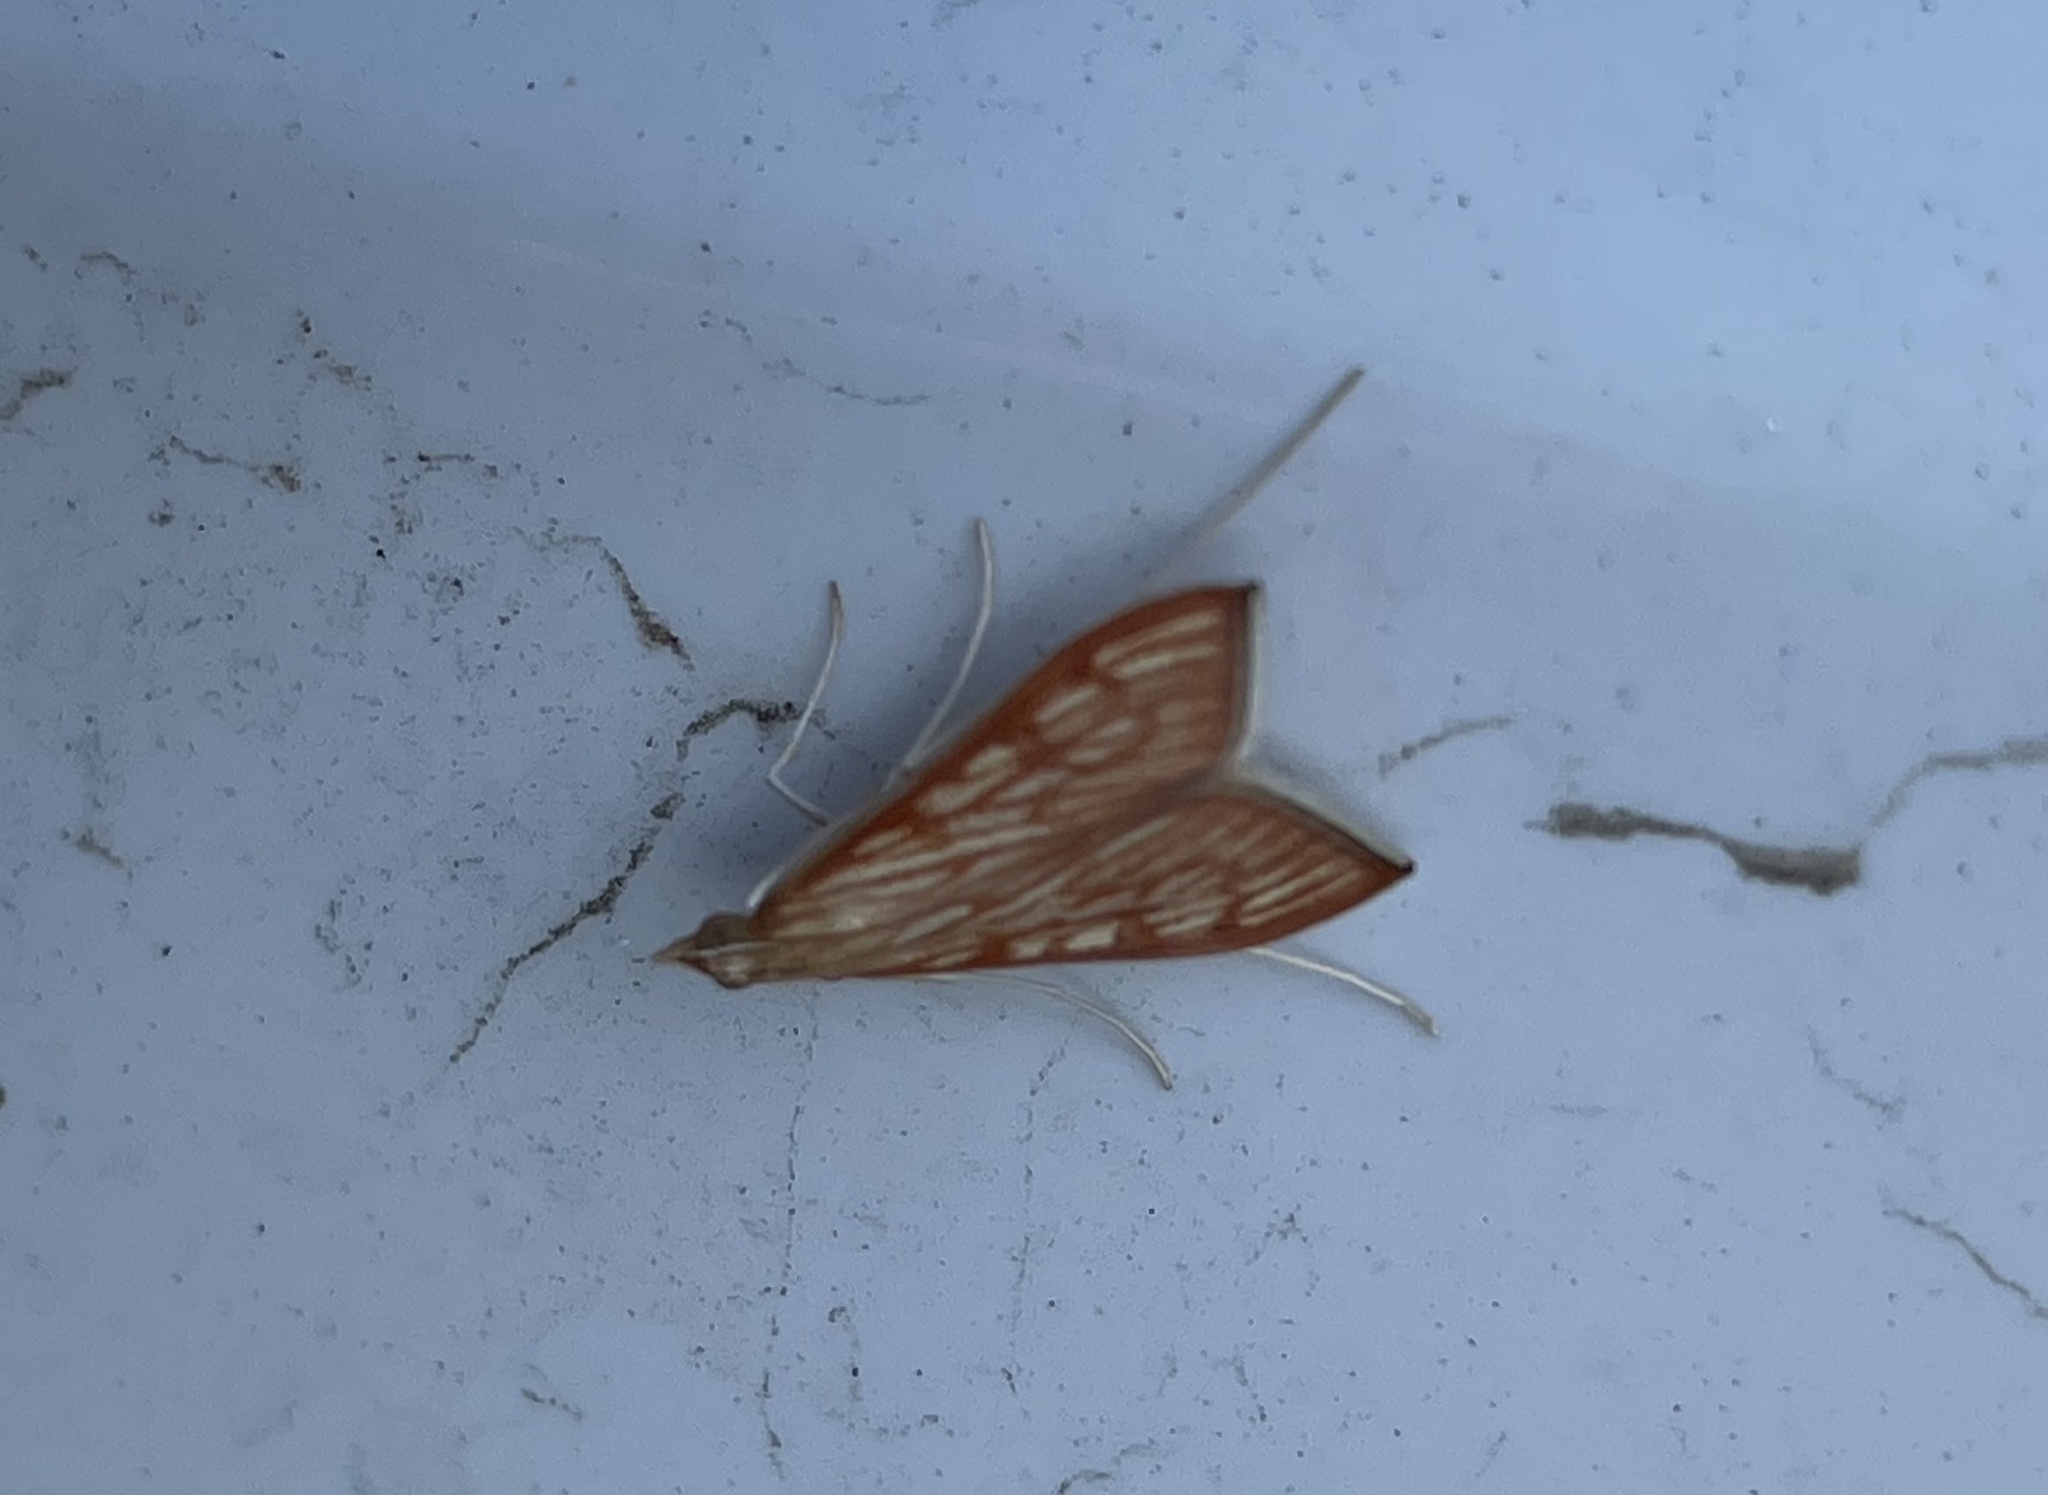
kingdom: Animalia
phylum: Arthropoda
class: Insecta
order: Lepidoptera
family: Crambidae
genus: Antigastra
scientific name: Antigastra catalaunalis
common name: Spanish dot
